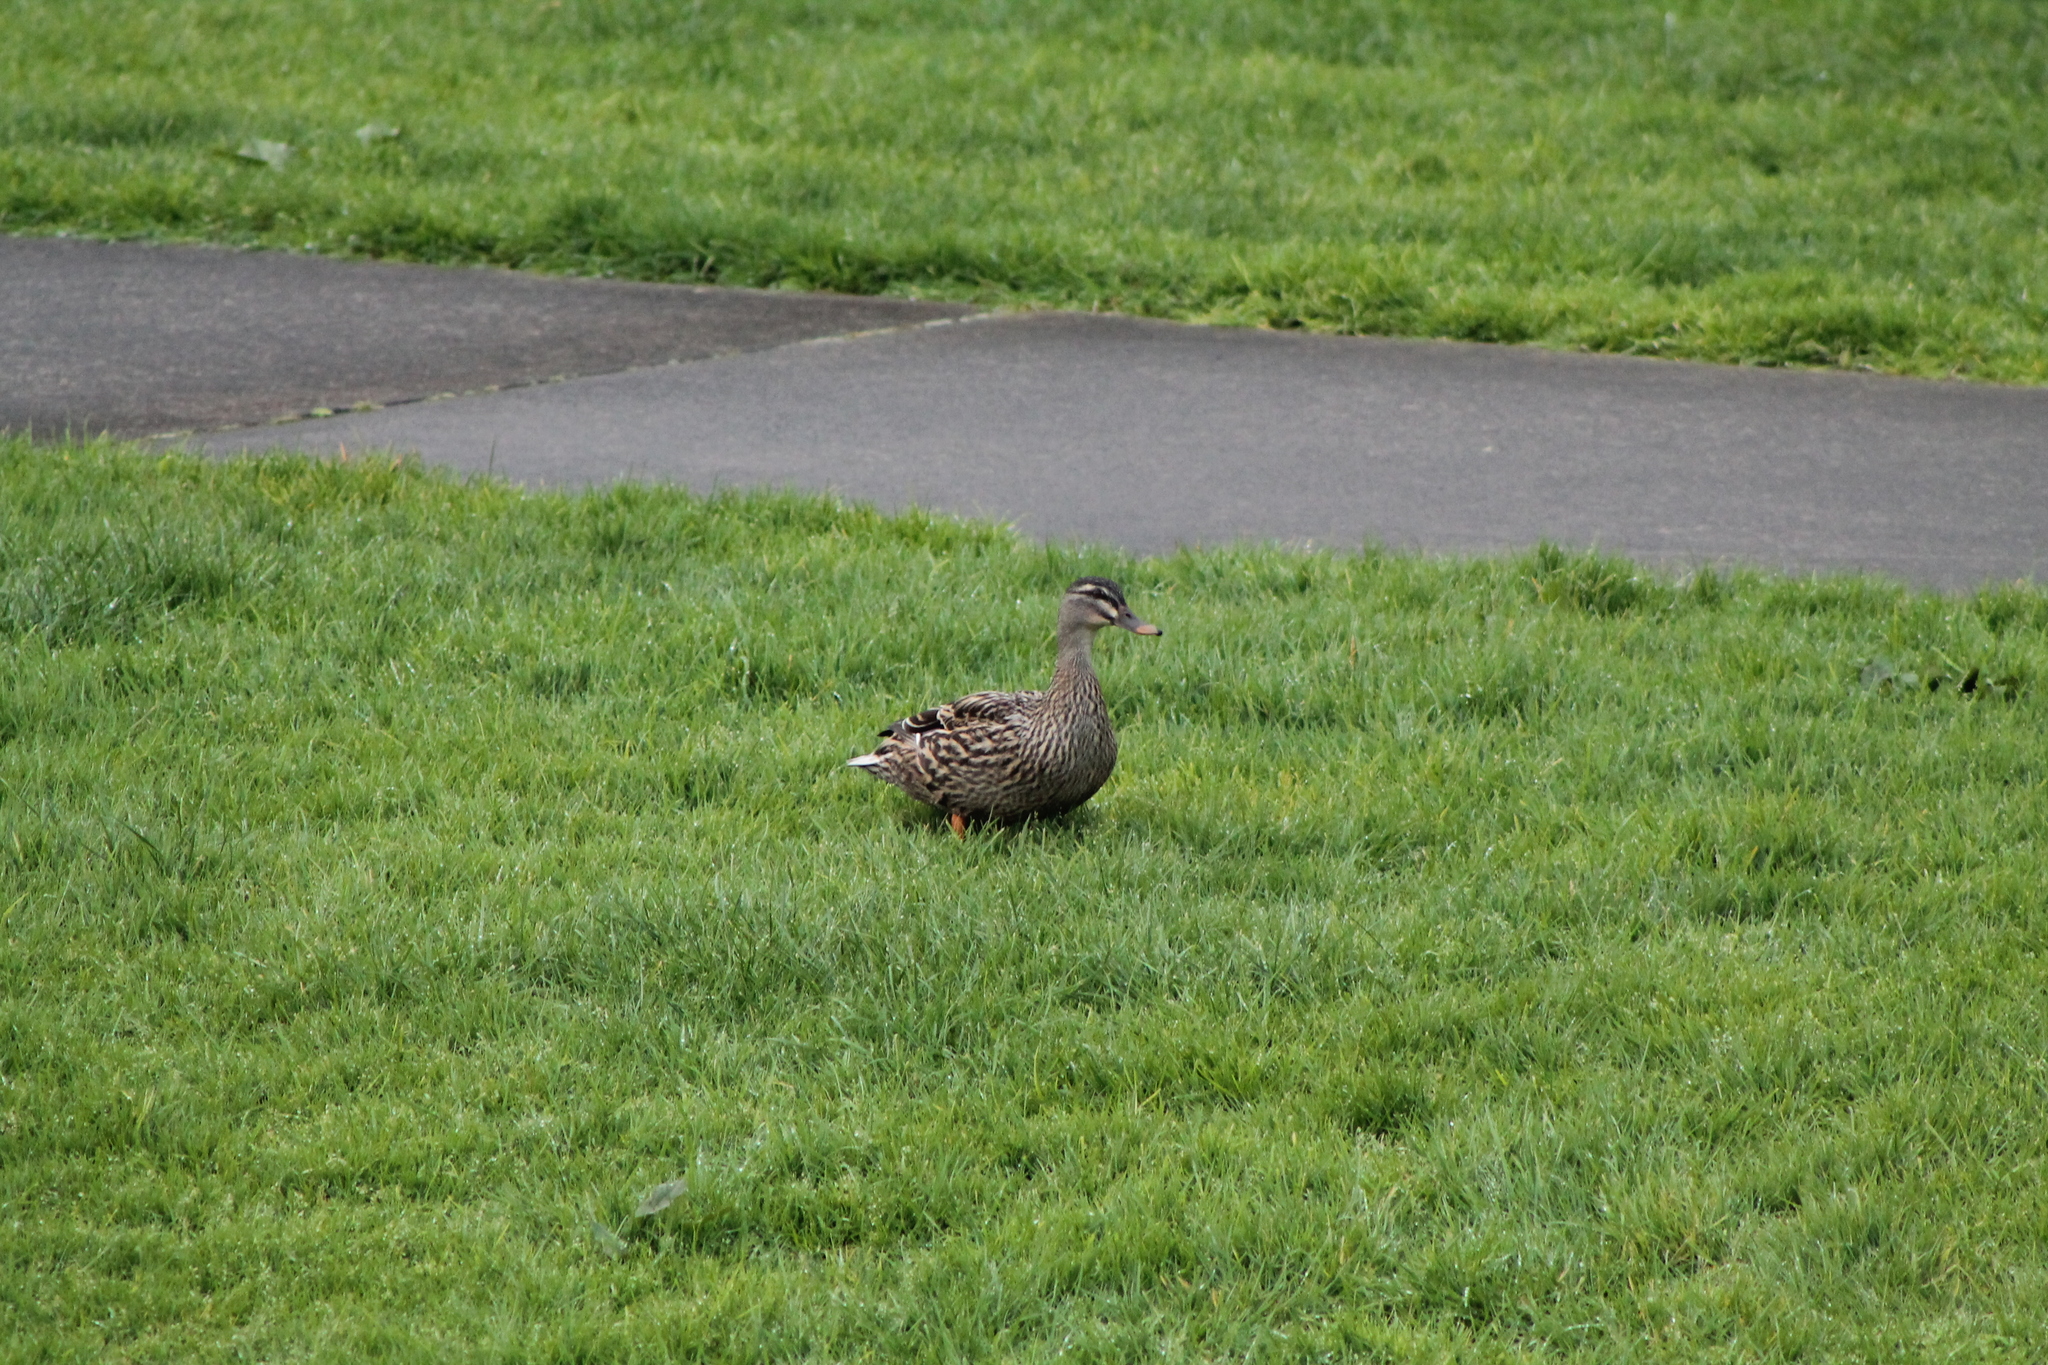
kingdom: Animalia
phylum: Chordata
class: Aves
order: Anseriformes
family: Anatidae
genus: Anas
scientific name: Anas platyrhynchos
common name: Mallard
